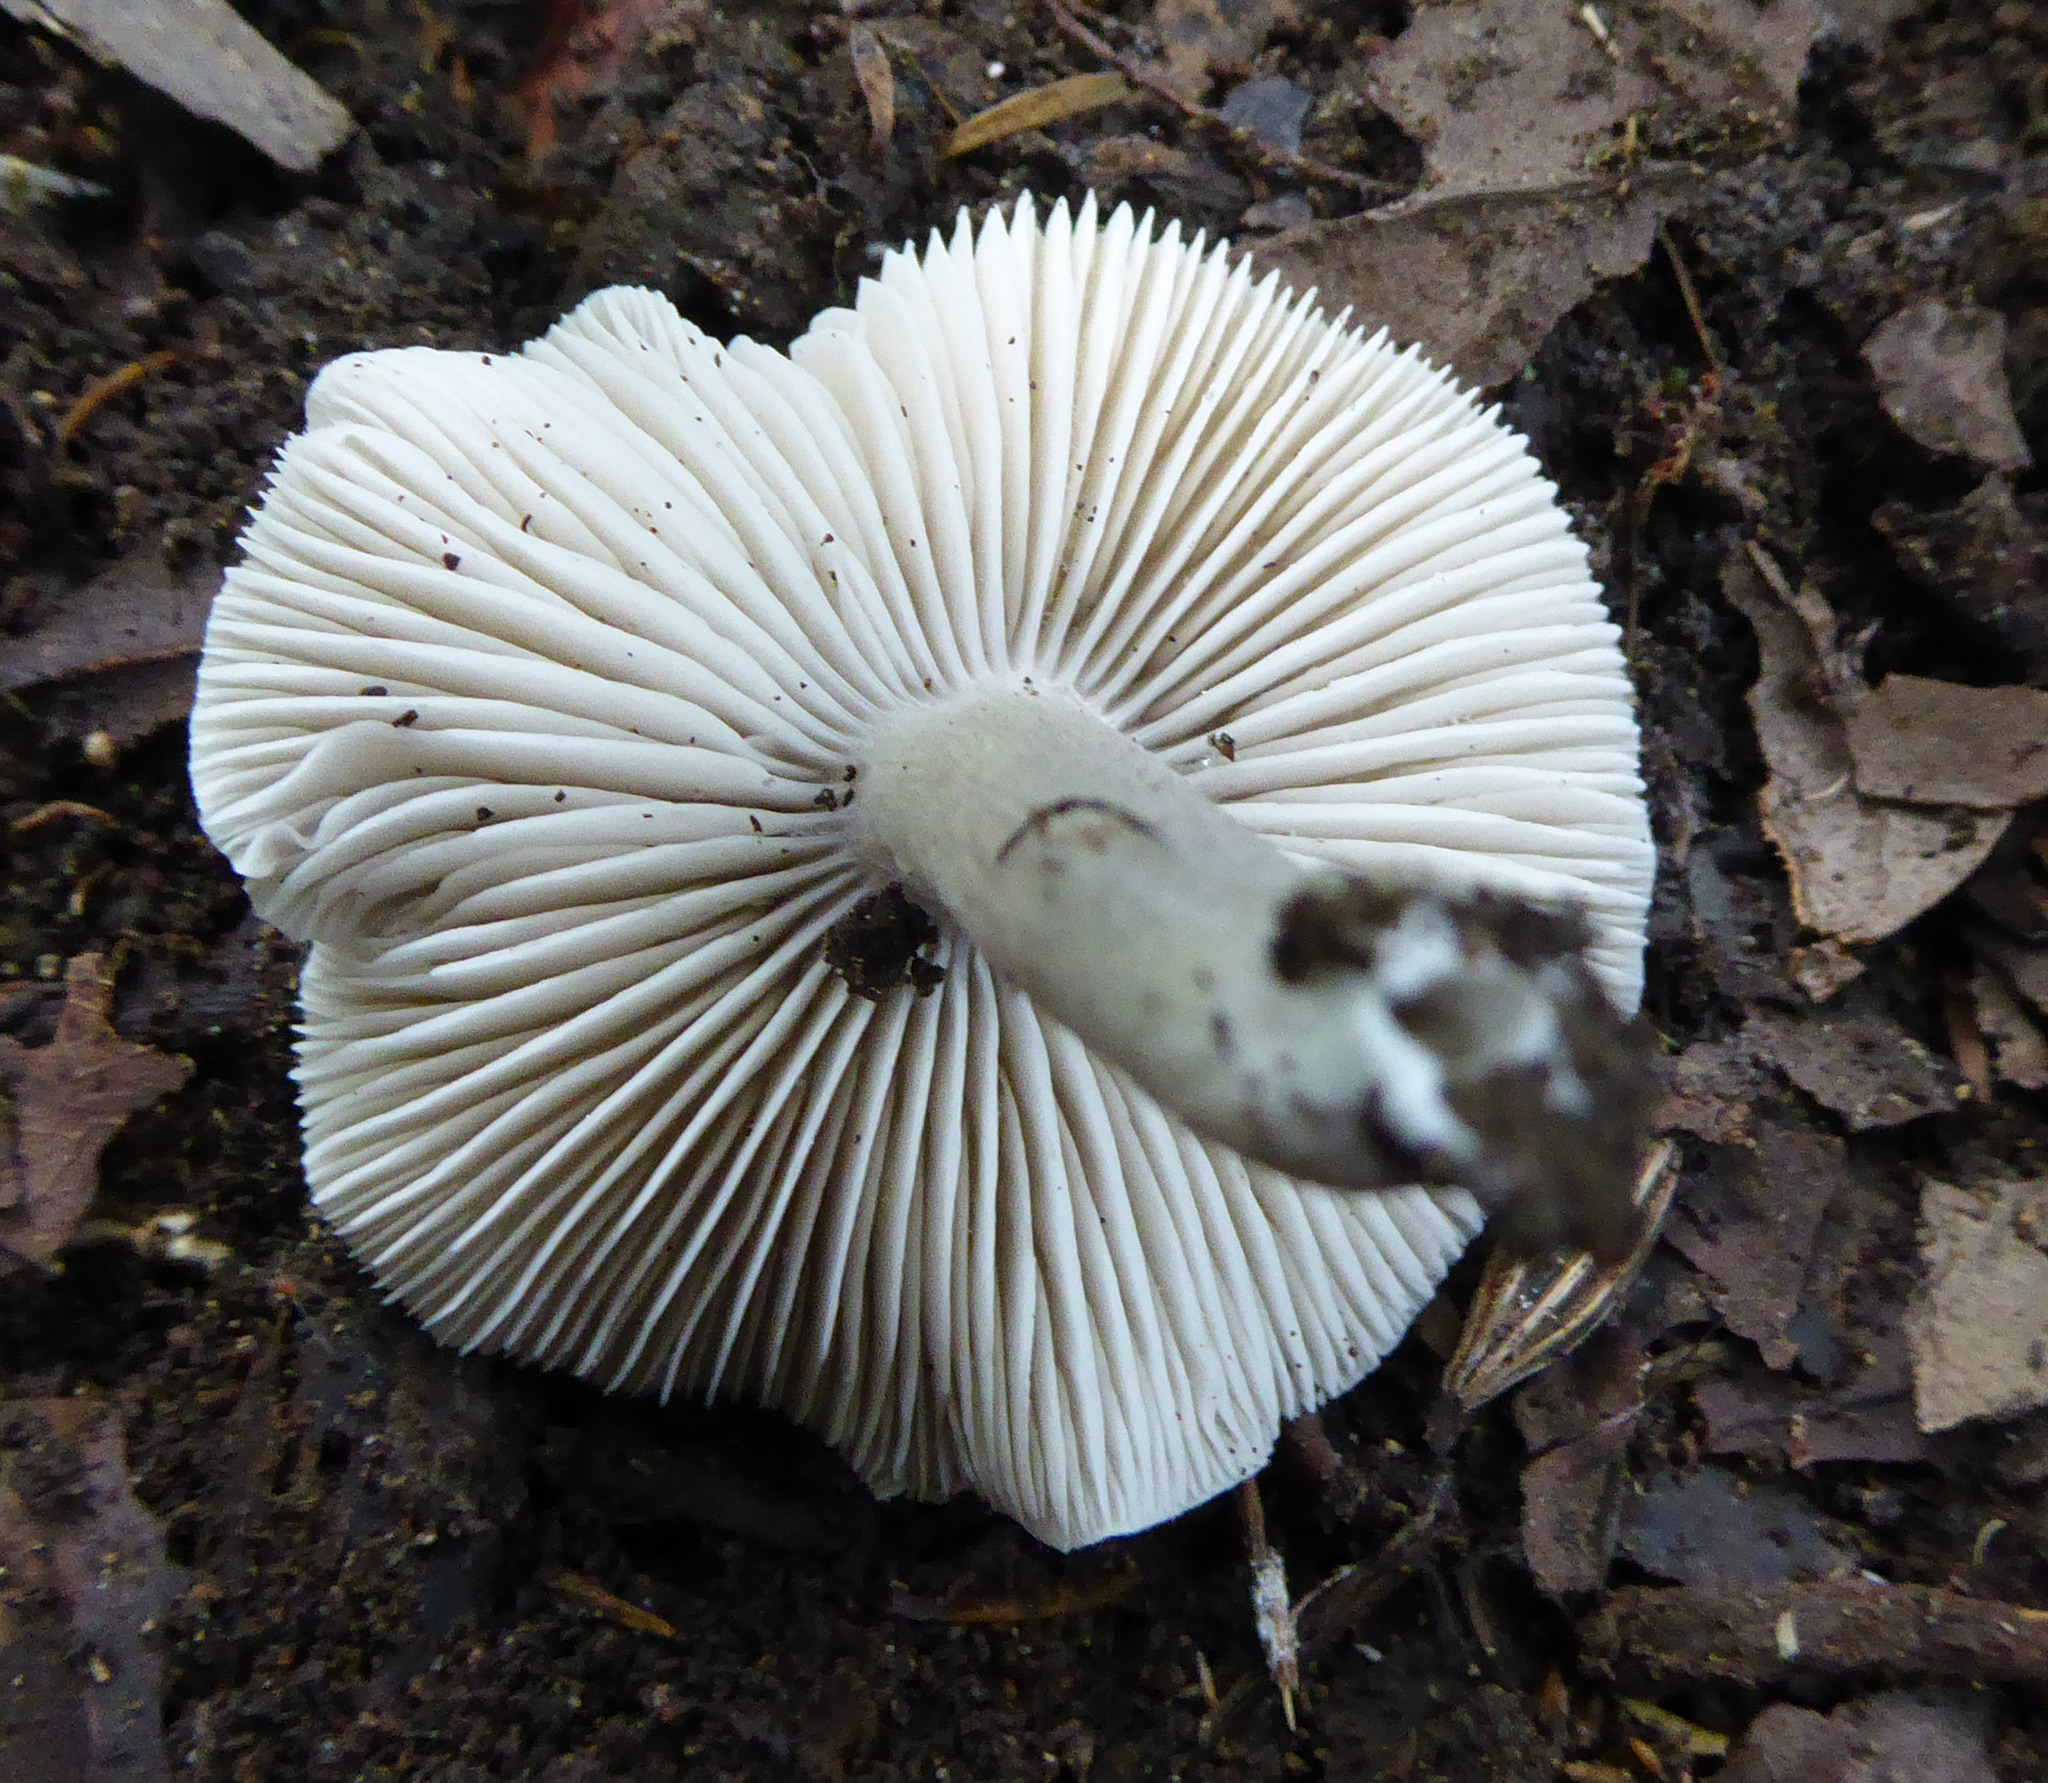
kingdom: Fungi
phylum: Basidiomycota
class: Agaricomycetes
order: Agaricales
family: Tricholomataceae
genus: Dermoloma
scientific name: Dermoloma murinum
